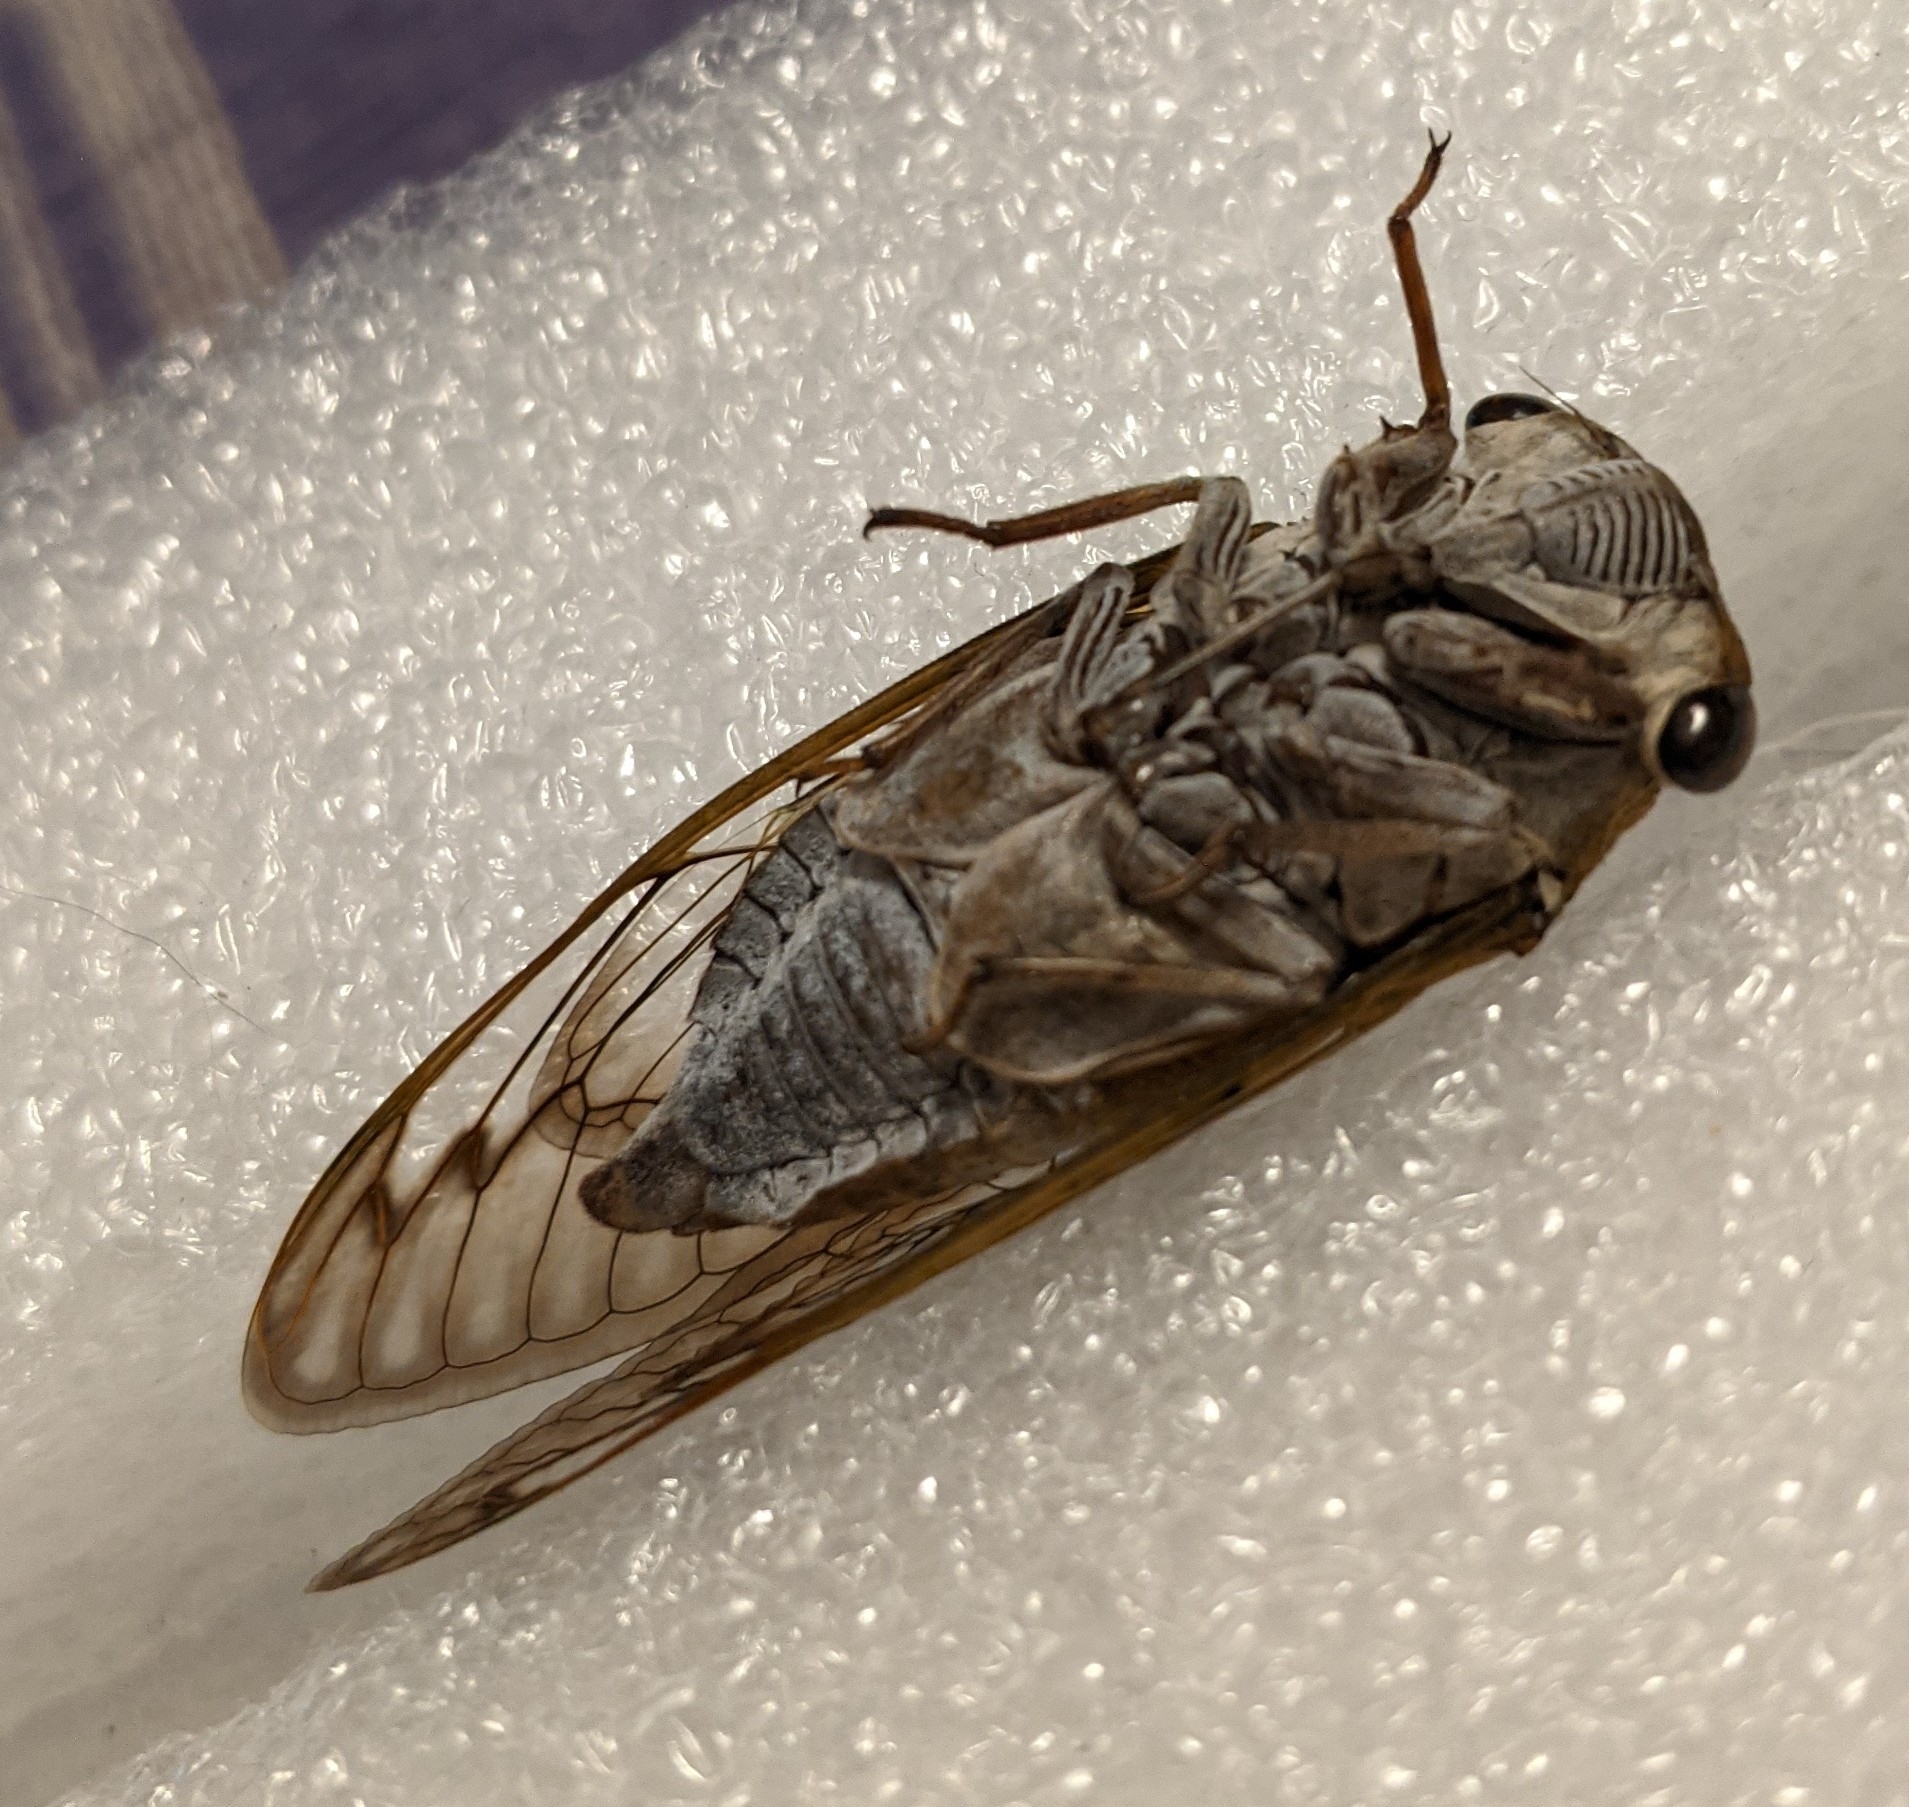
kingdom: Animalia
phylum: Arthropoda
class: Insecta
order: Hemiptera
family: Cicadidae
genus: Neotibicen
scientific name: Neotibicen superbus
